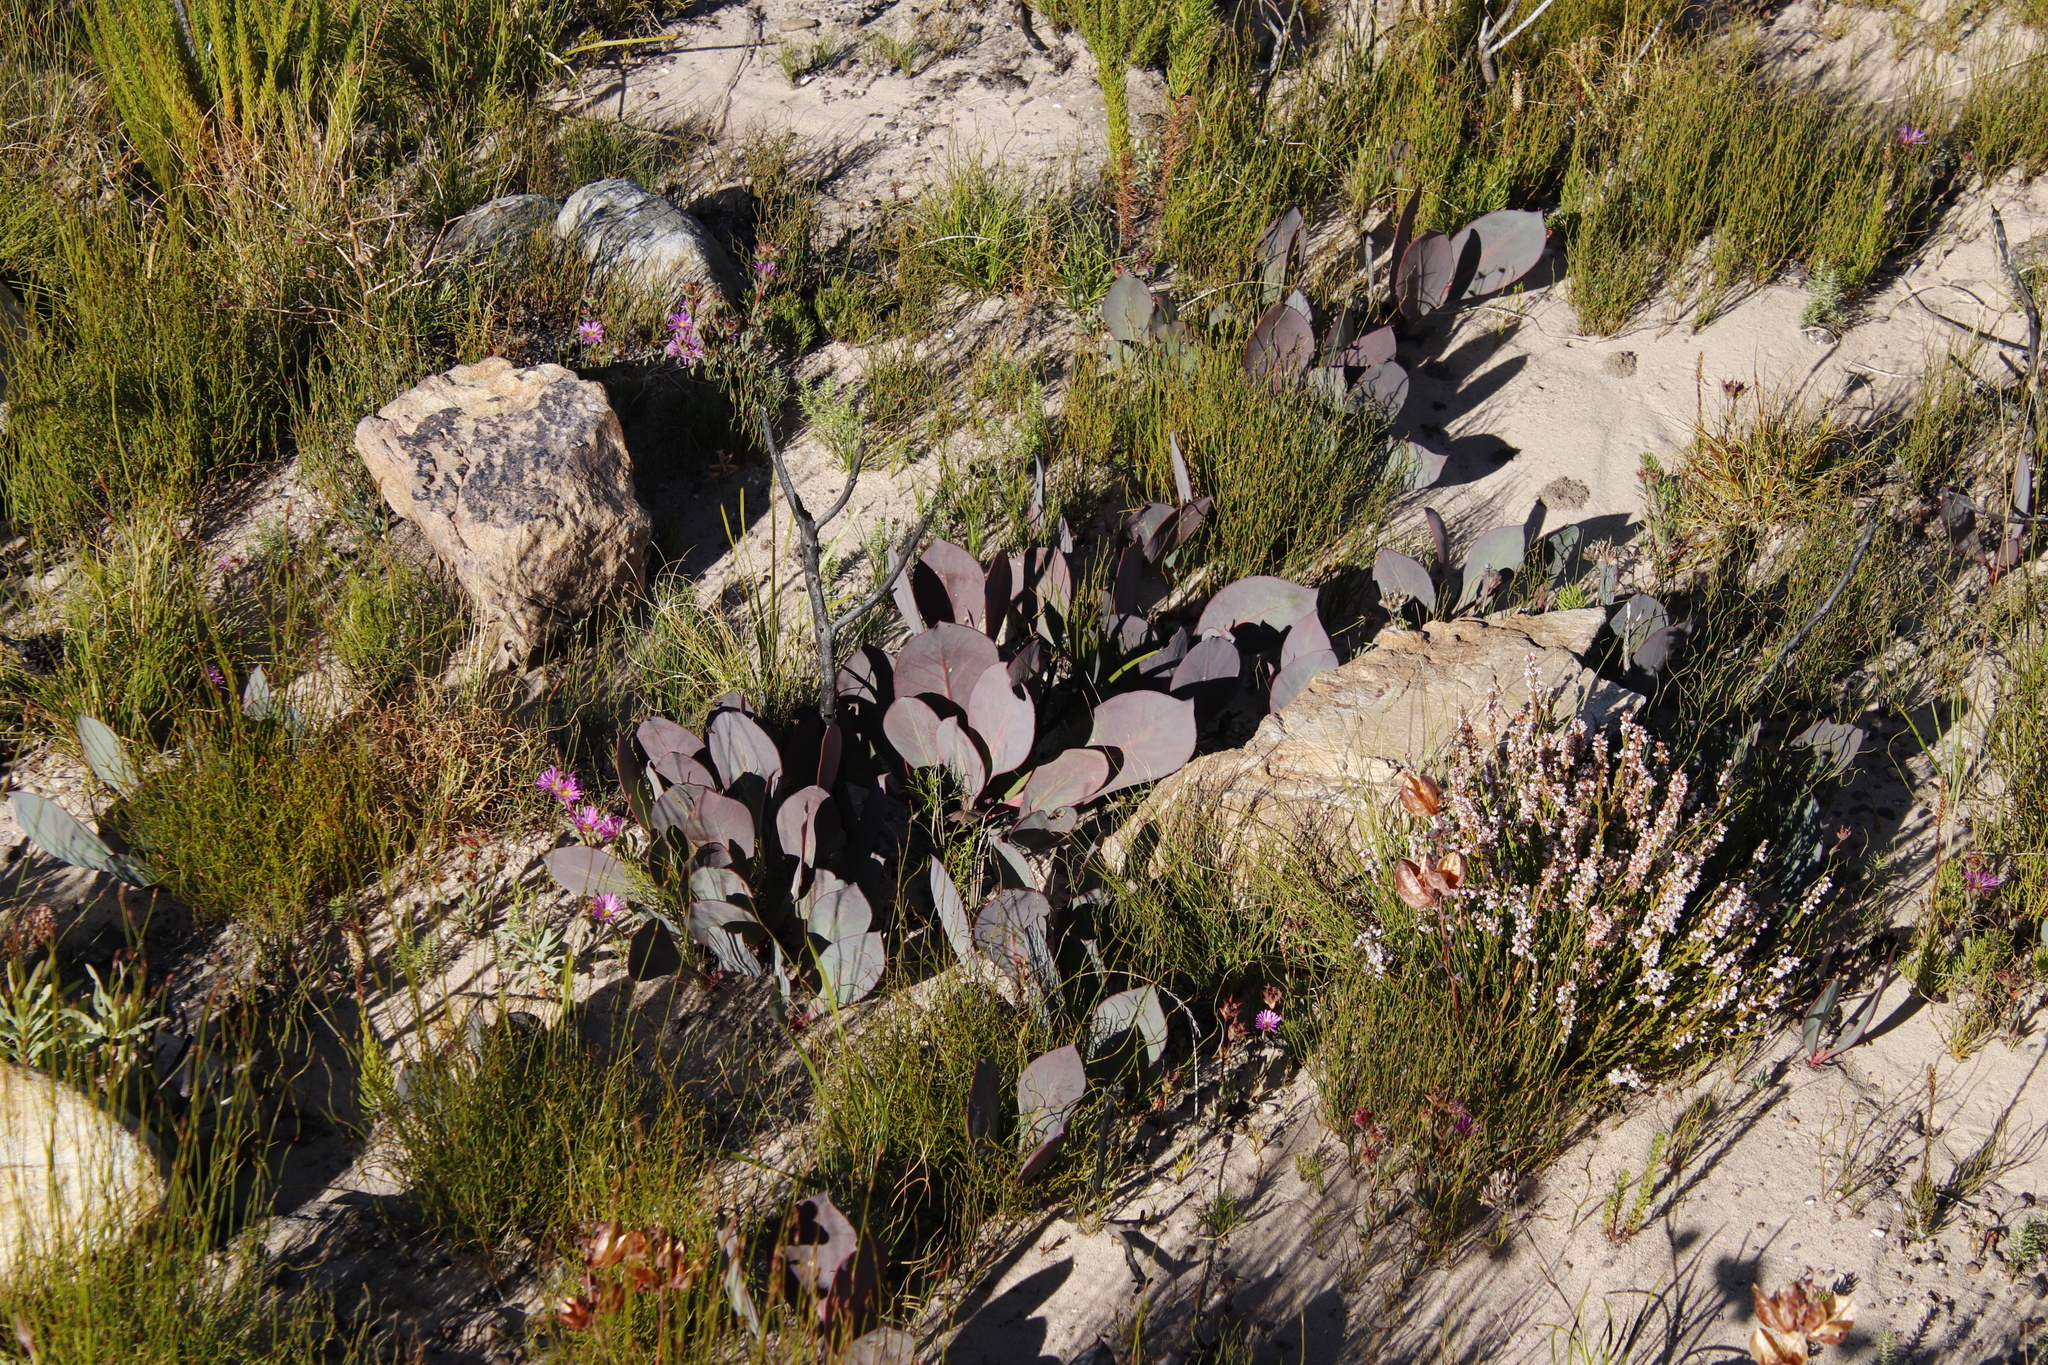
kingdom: Plantae
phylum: Tracheophyta
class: Magnoliopsida
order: Proteales
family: Proteaceae
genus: Protea
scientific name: Protea acaulos
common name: Common ground sugarbush
